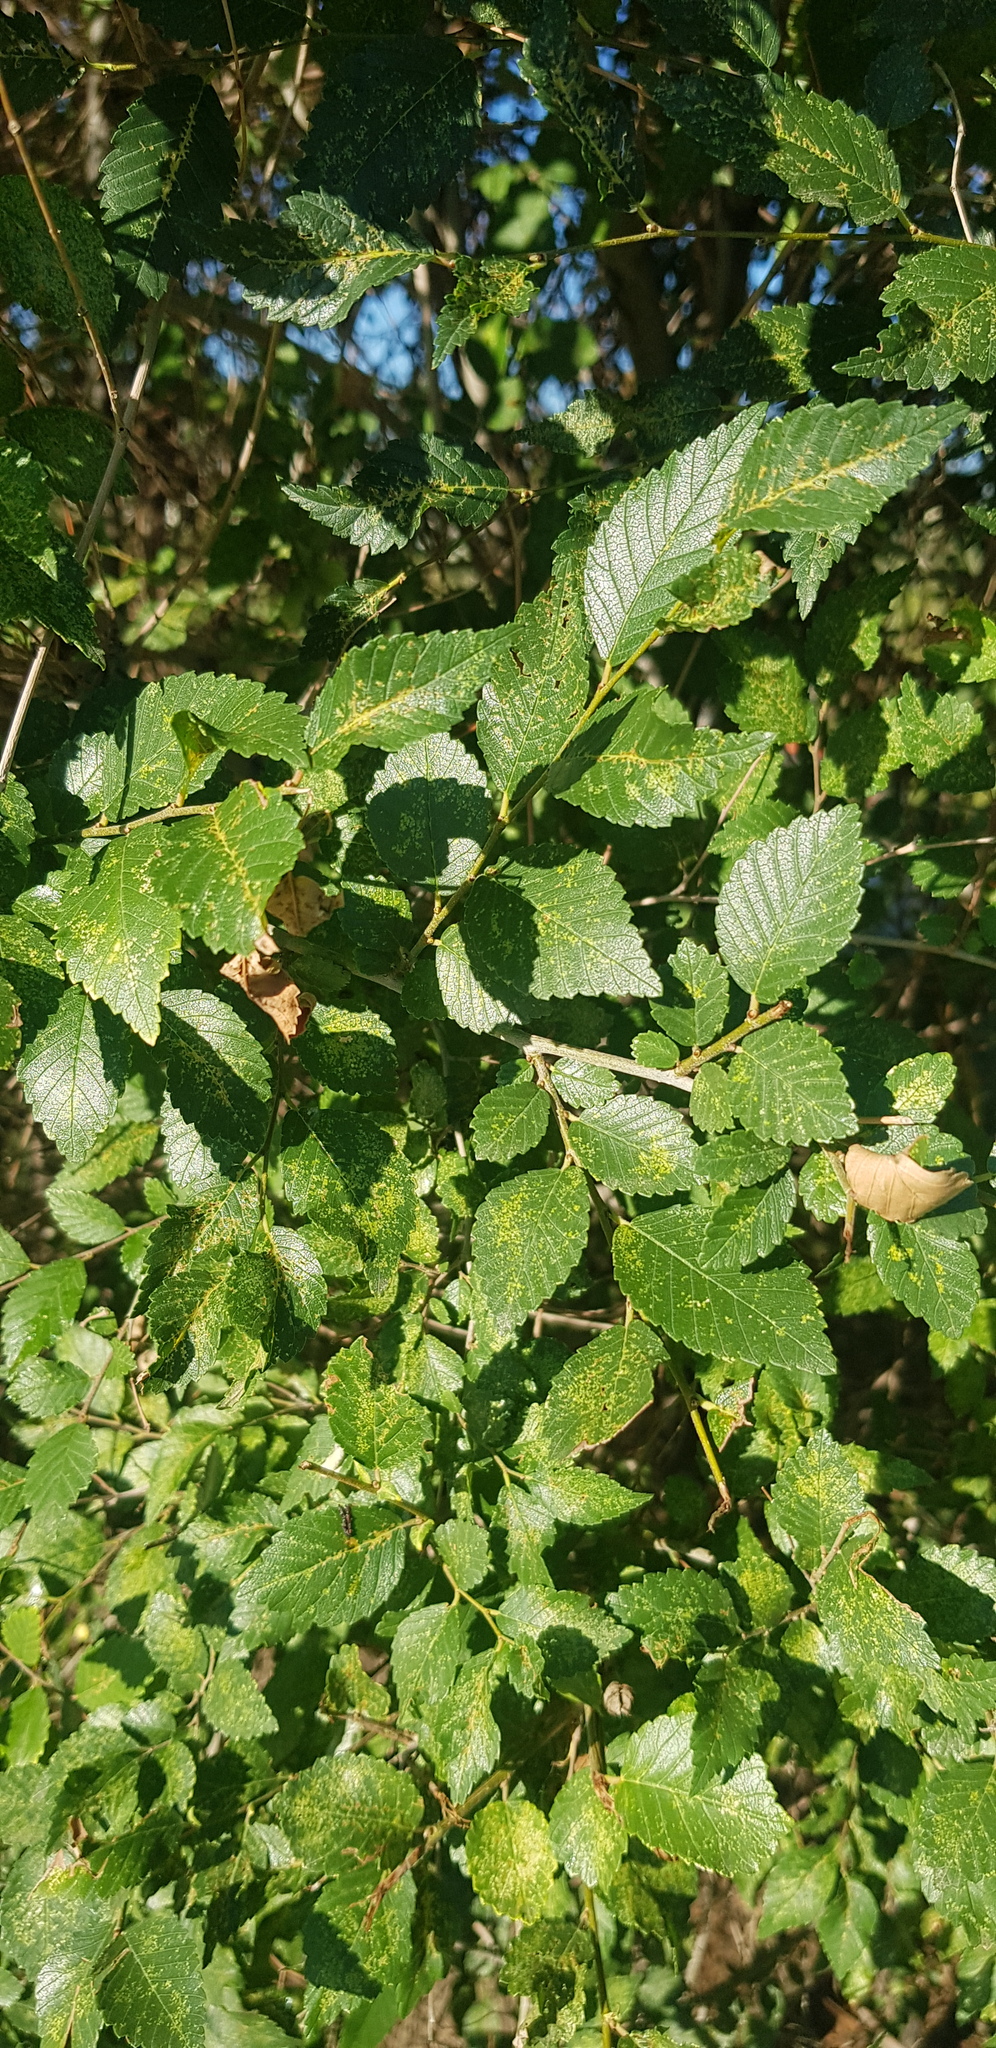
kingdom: Plantae
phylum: Tracheophyta
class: Magnoliopsida
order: Rosales
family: Ulmaceae
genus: Ulmus
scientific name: Ulmus pumila
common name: Siberian elm
